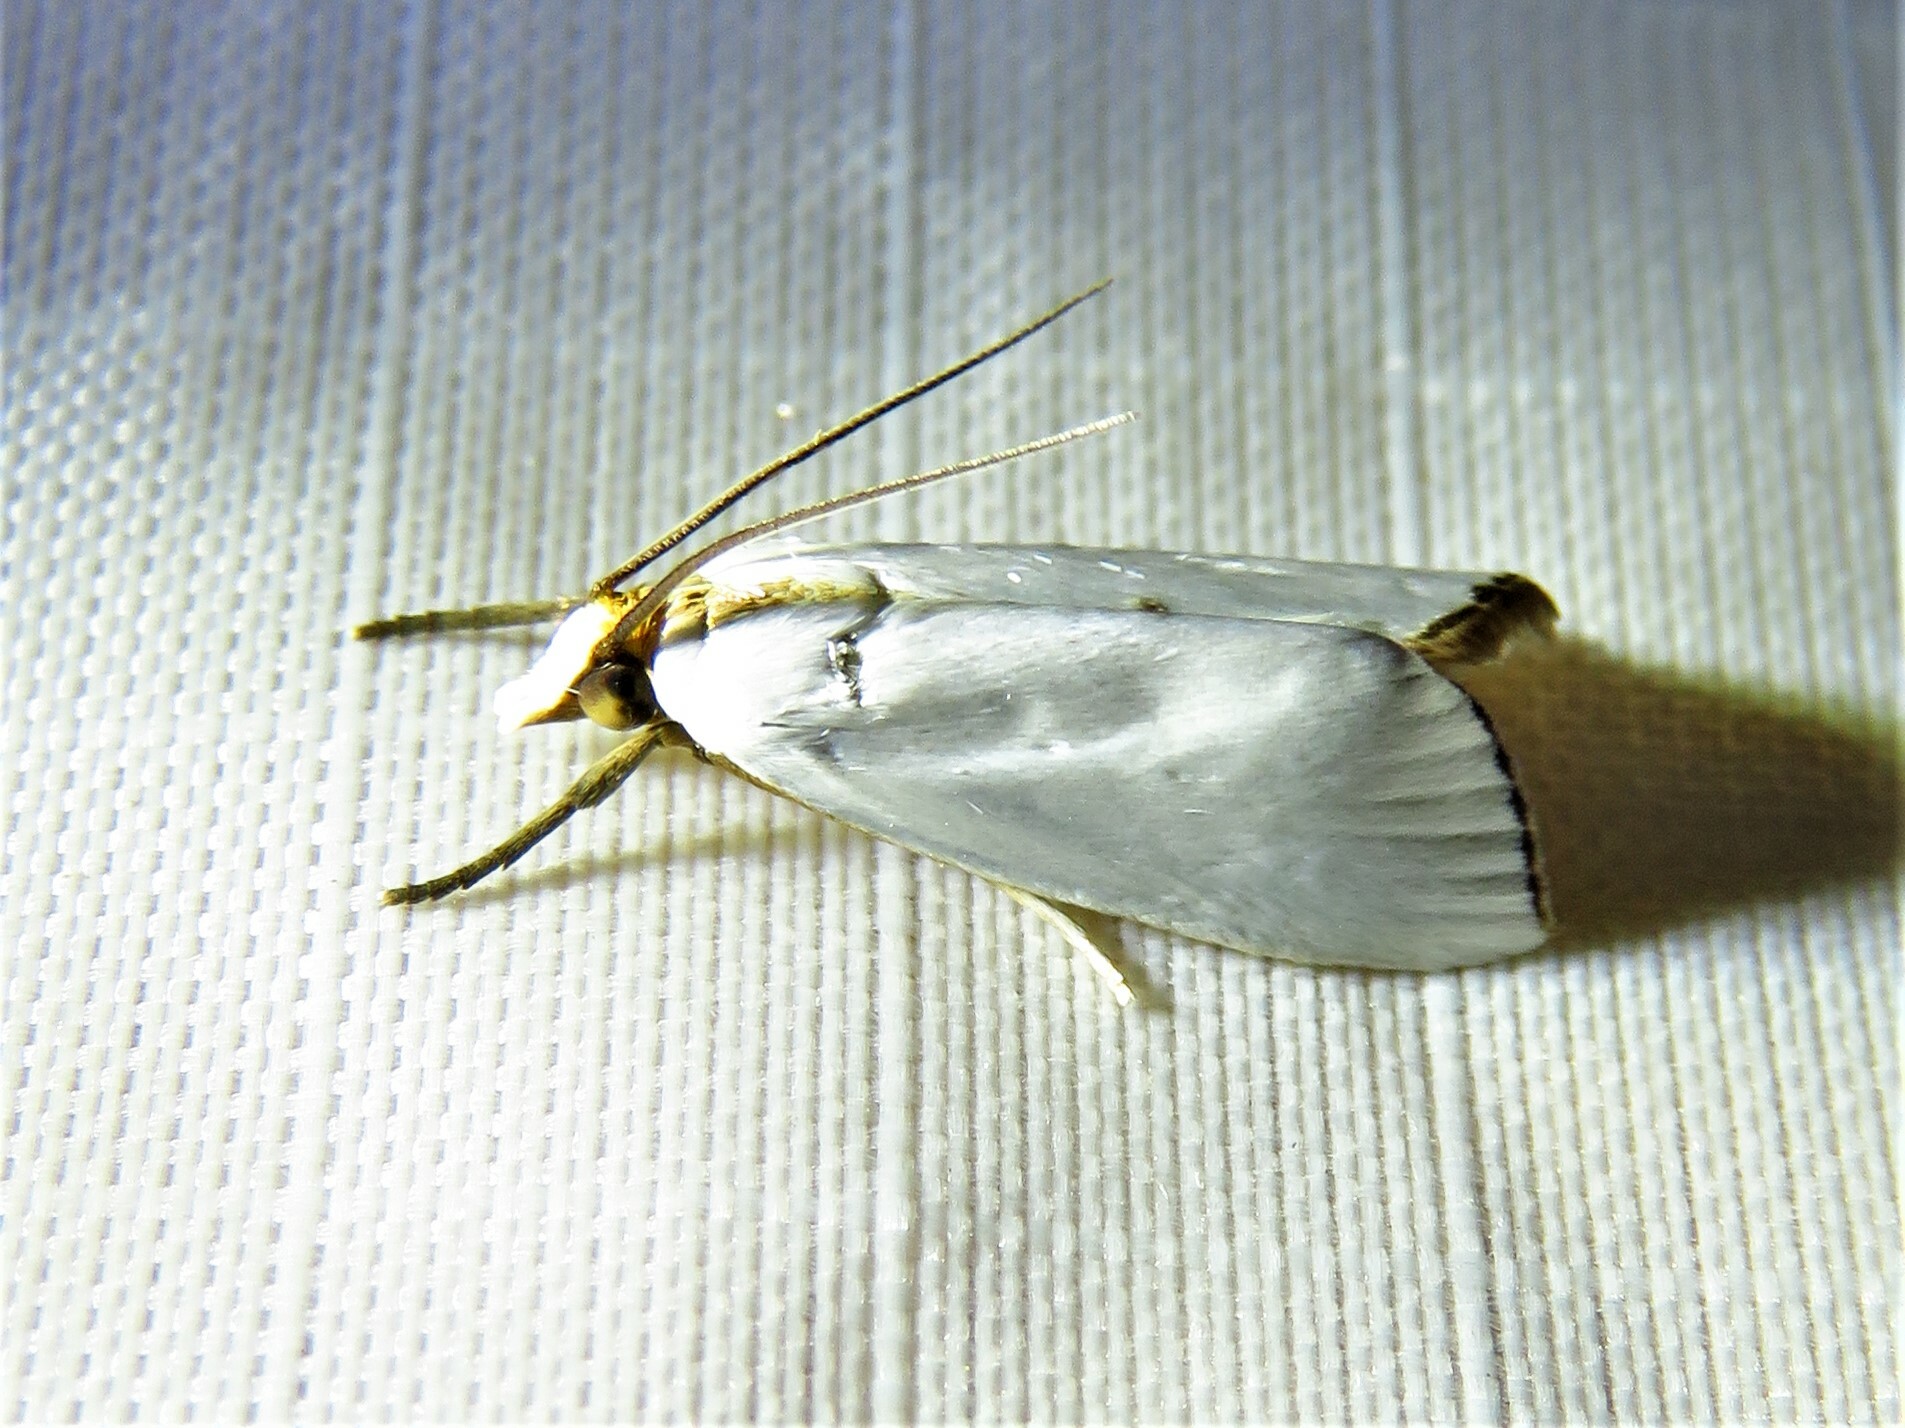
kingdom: Animalia
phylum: Arthropoda
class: Insecta
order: Lepidoptera
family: Crambidae
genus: Argyria
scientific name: Argyria nivalis
